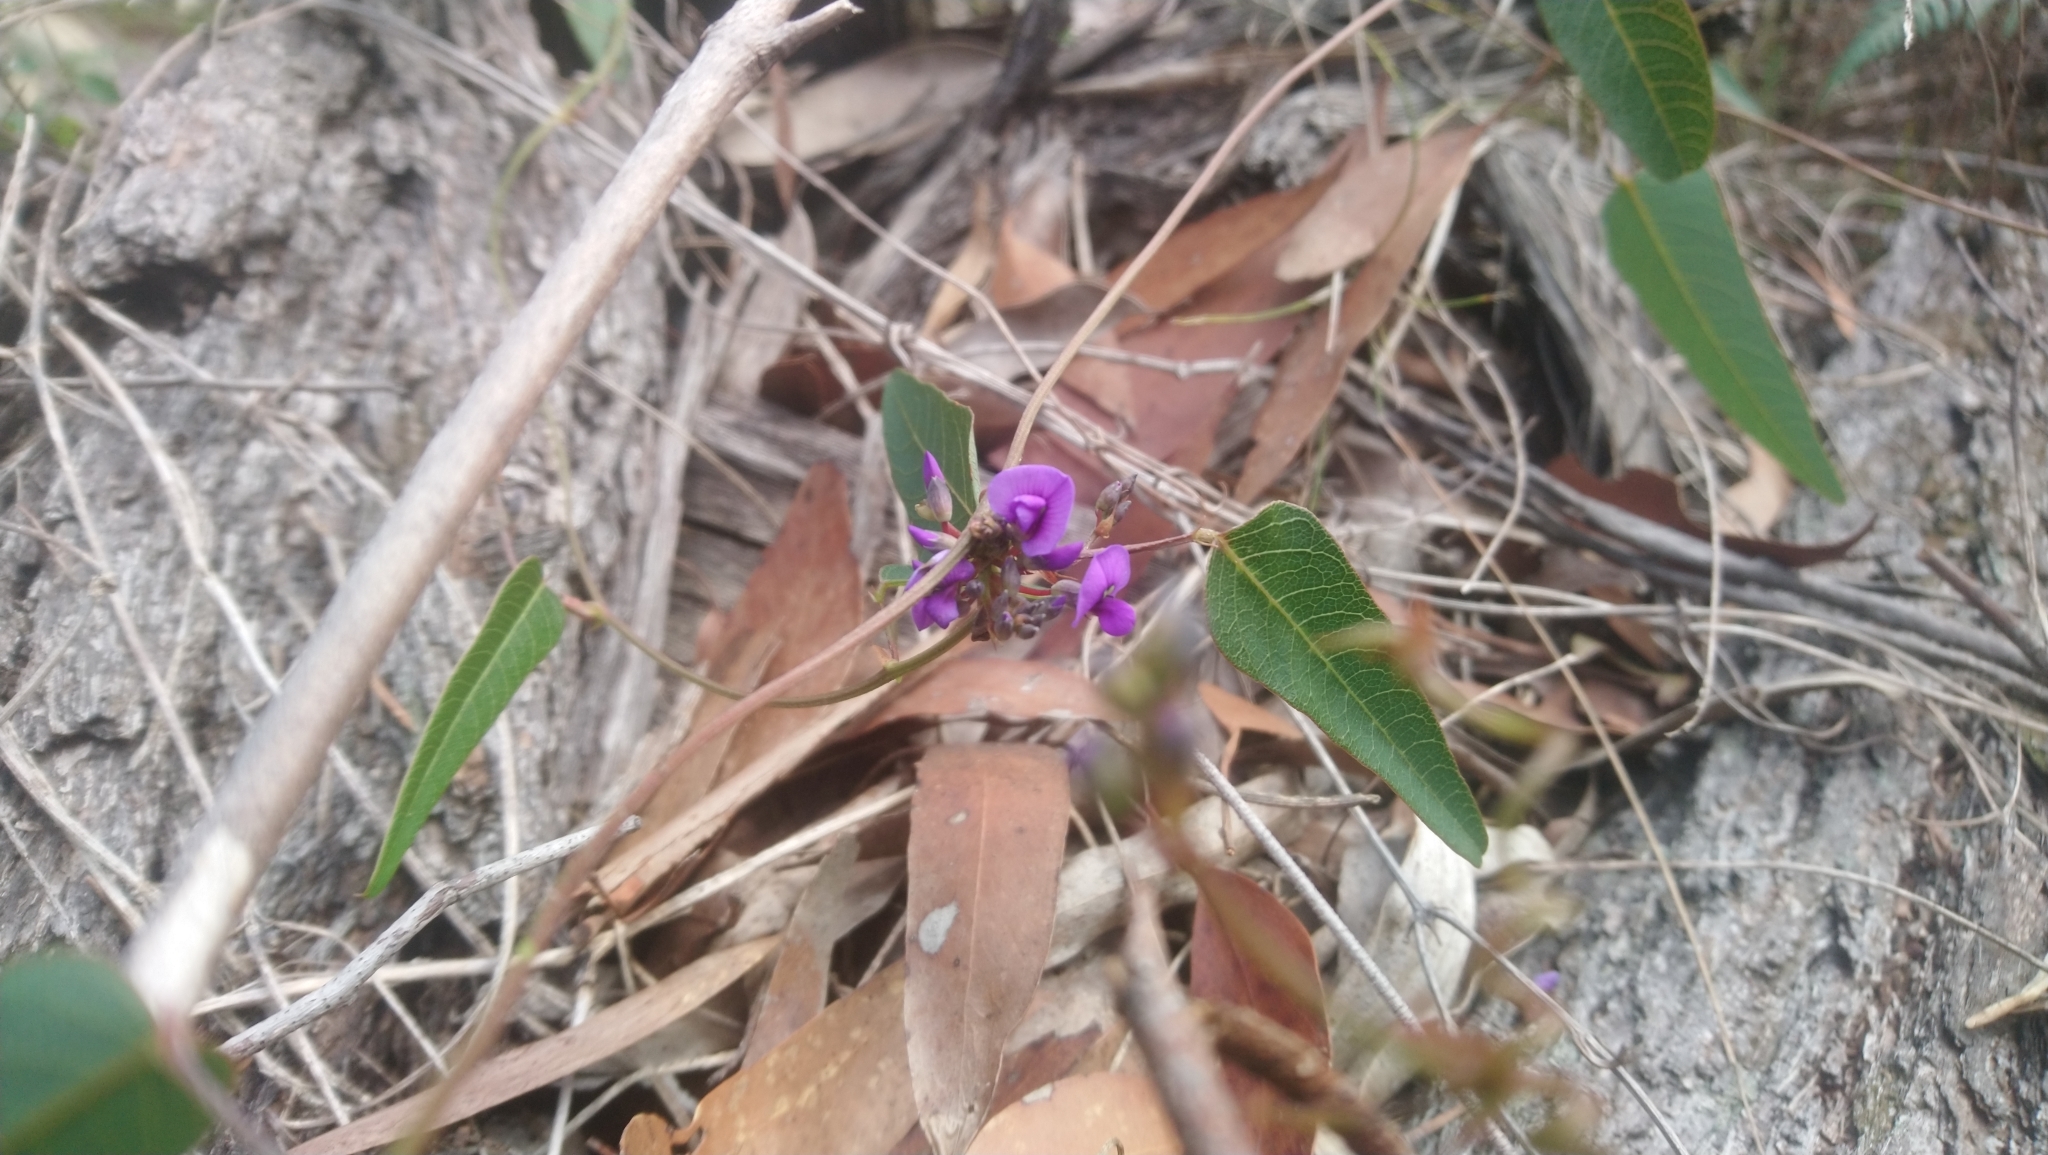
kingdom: Plantae
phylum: Tracheophyta
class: Magnoliopsida
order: Fabales
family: Fabaceae
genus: Hardenbergia
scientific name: Hardenbergia violacea
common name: Coral-pea
